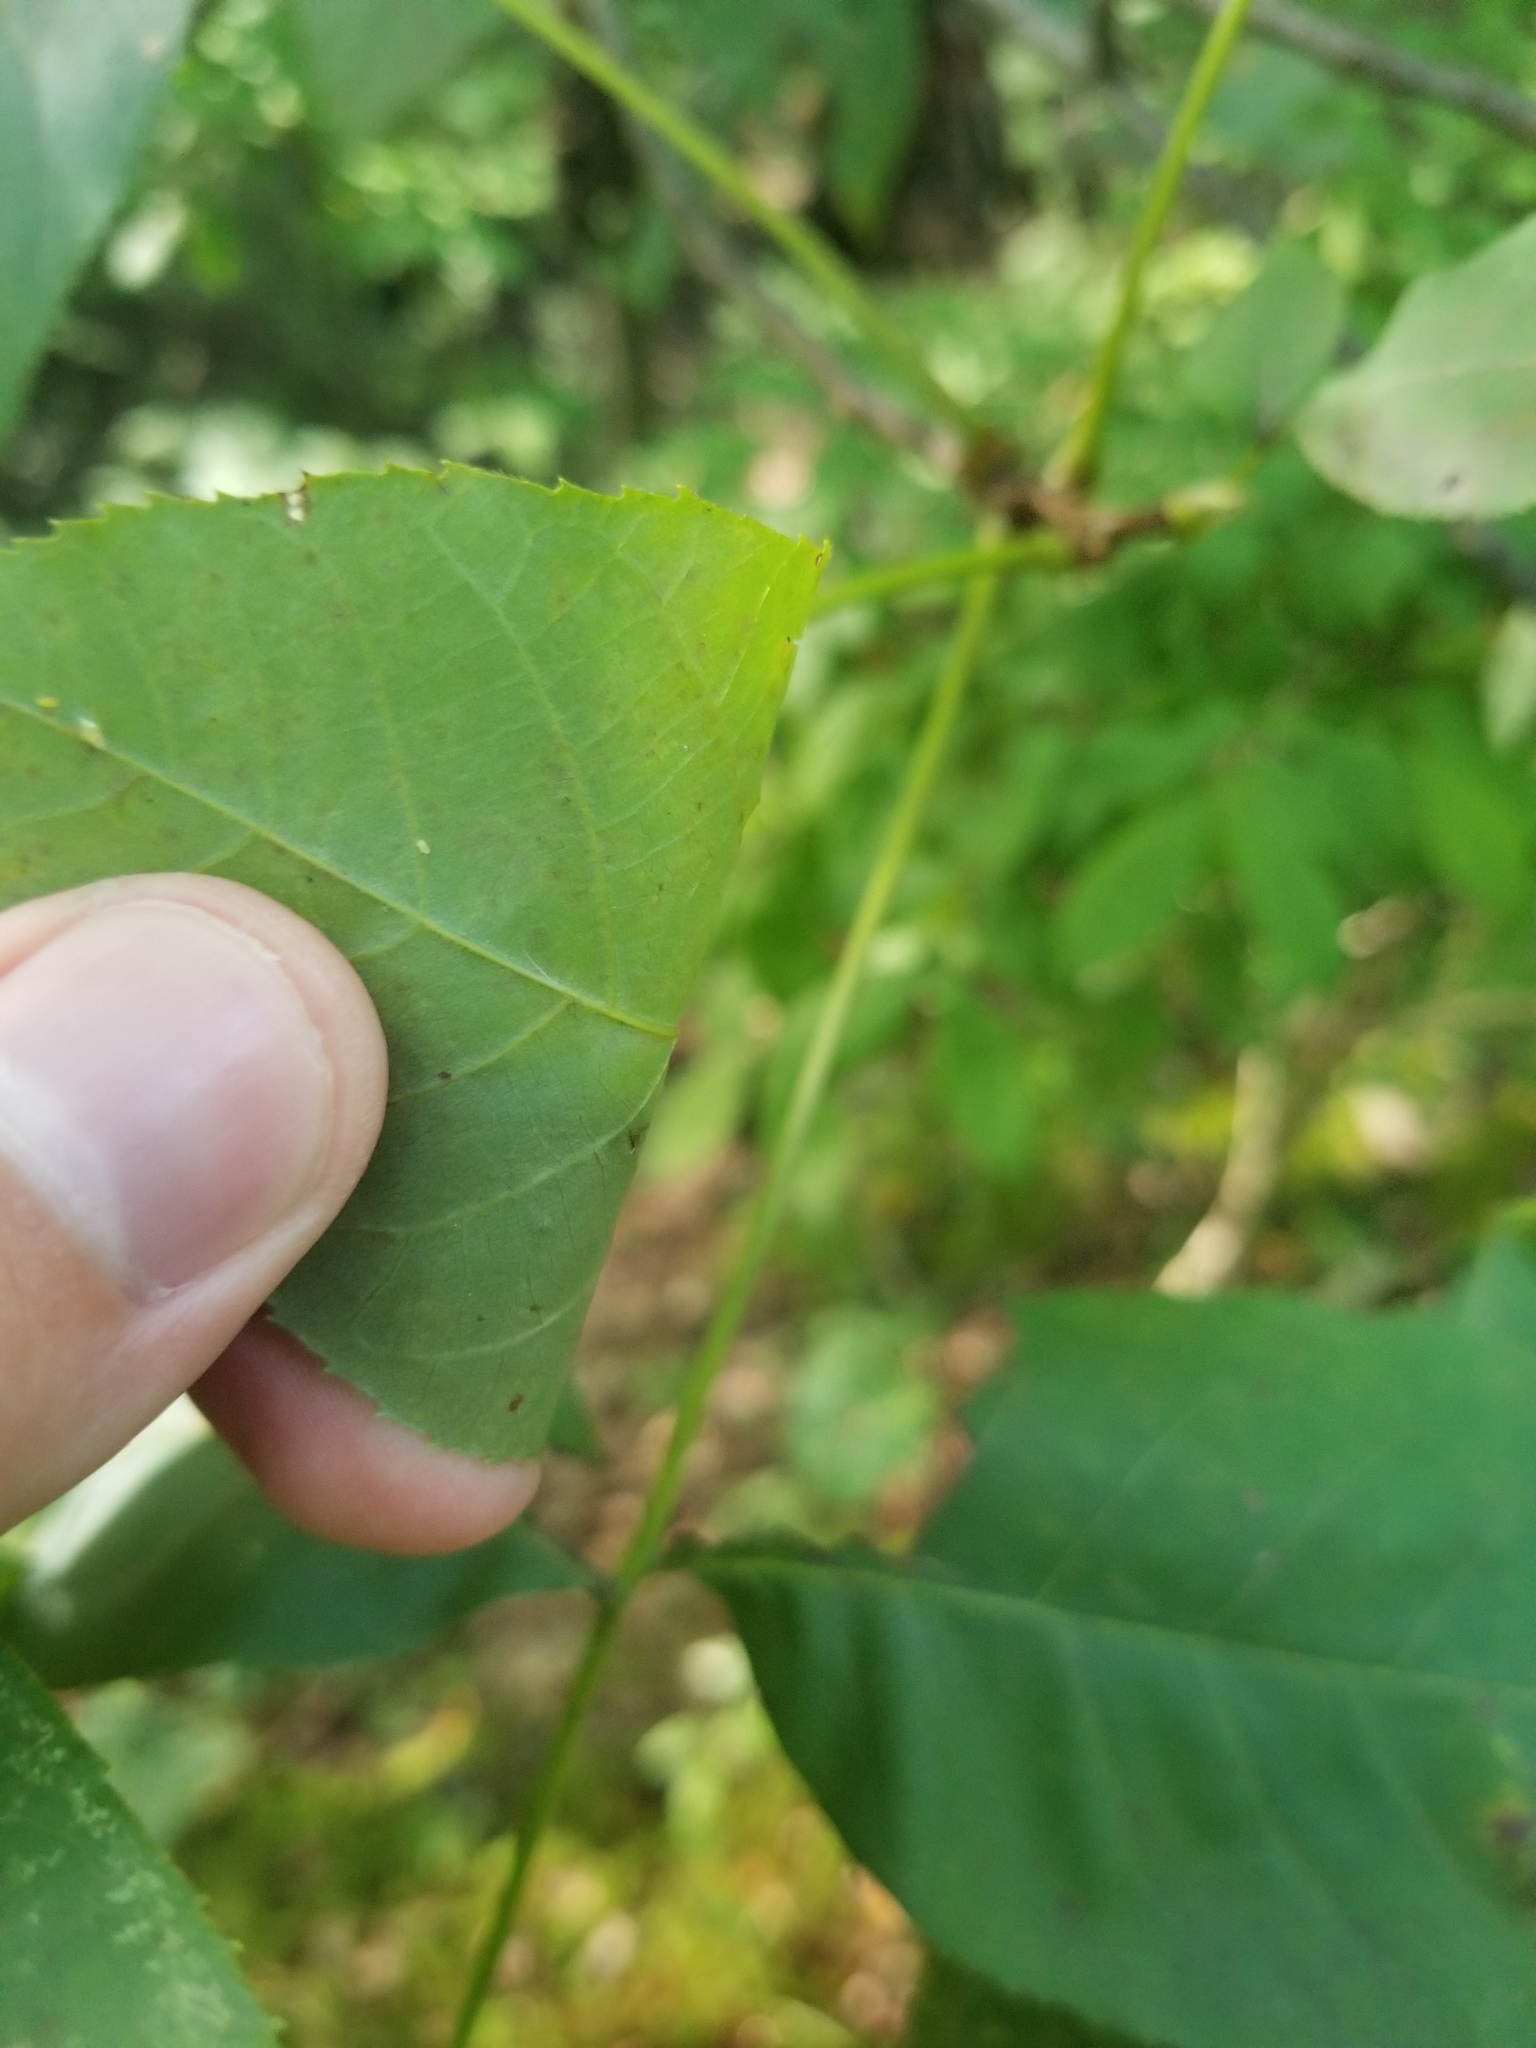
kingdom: Plantae
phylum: Tracheophyta
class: Magnoliopsida
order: Fagales
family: Juglandaceae
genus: Carya
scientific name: Carya glabra
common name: Pignut hickory
